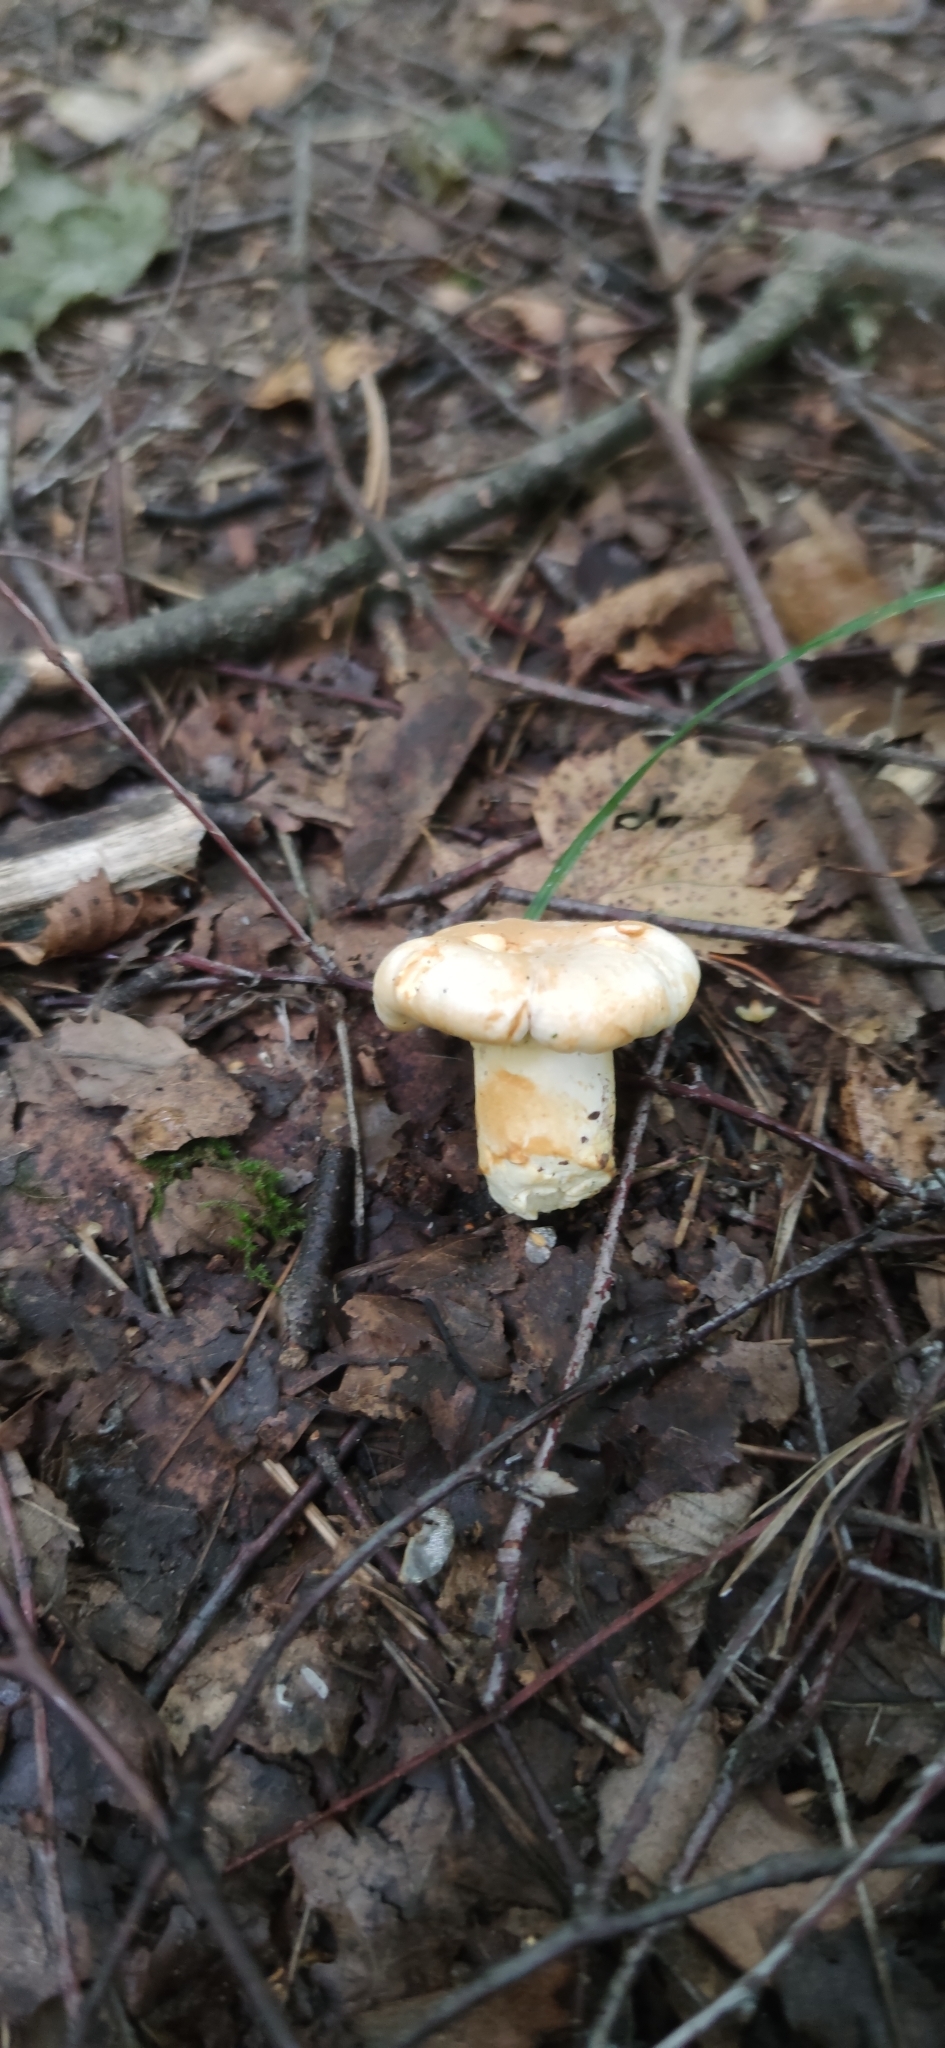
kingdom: Fungi
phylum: Basidiomycota
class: Agaricomycetes
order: Cantharellales
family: Hydnaceae
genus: Cantharellus
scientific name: Cantharellus pallens
